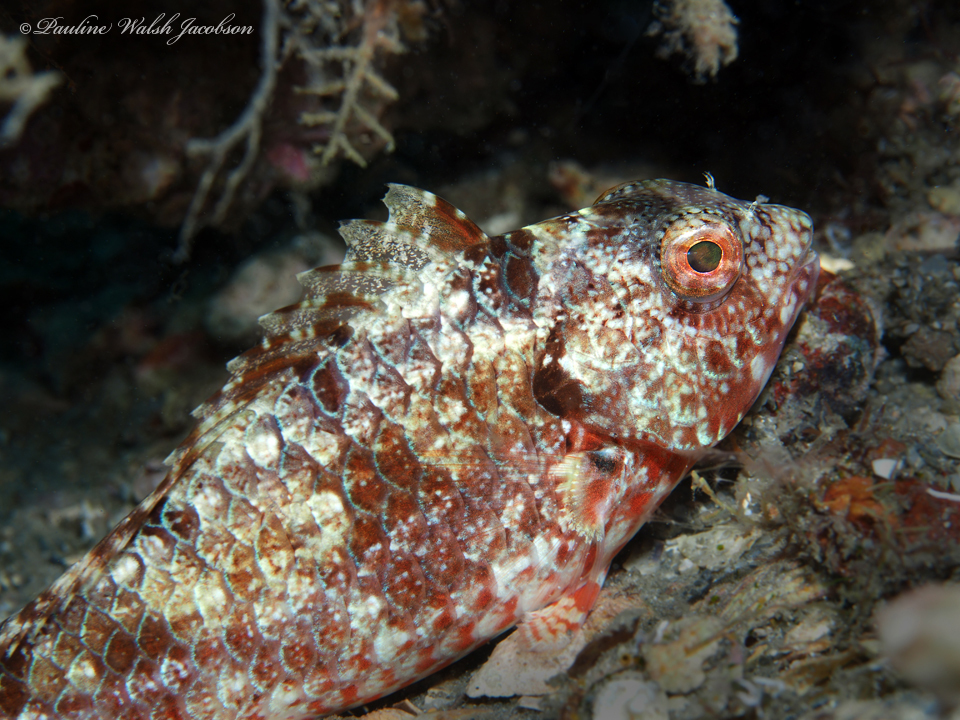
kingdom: Animalia
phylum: Chordata
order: Perciformes
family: Scaridae
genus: Sparisoma
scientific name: Sparisoma chrysopterum
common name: Redtail parrotfish
